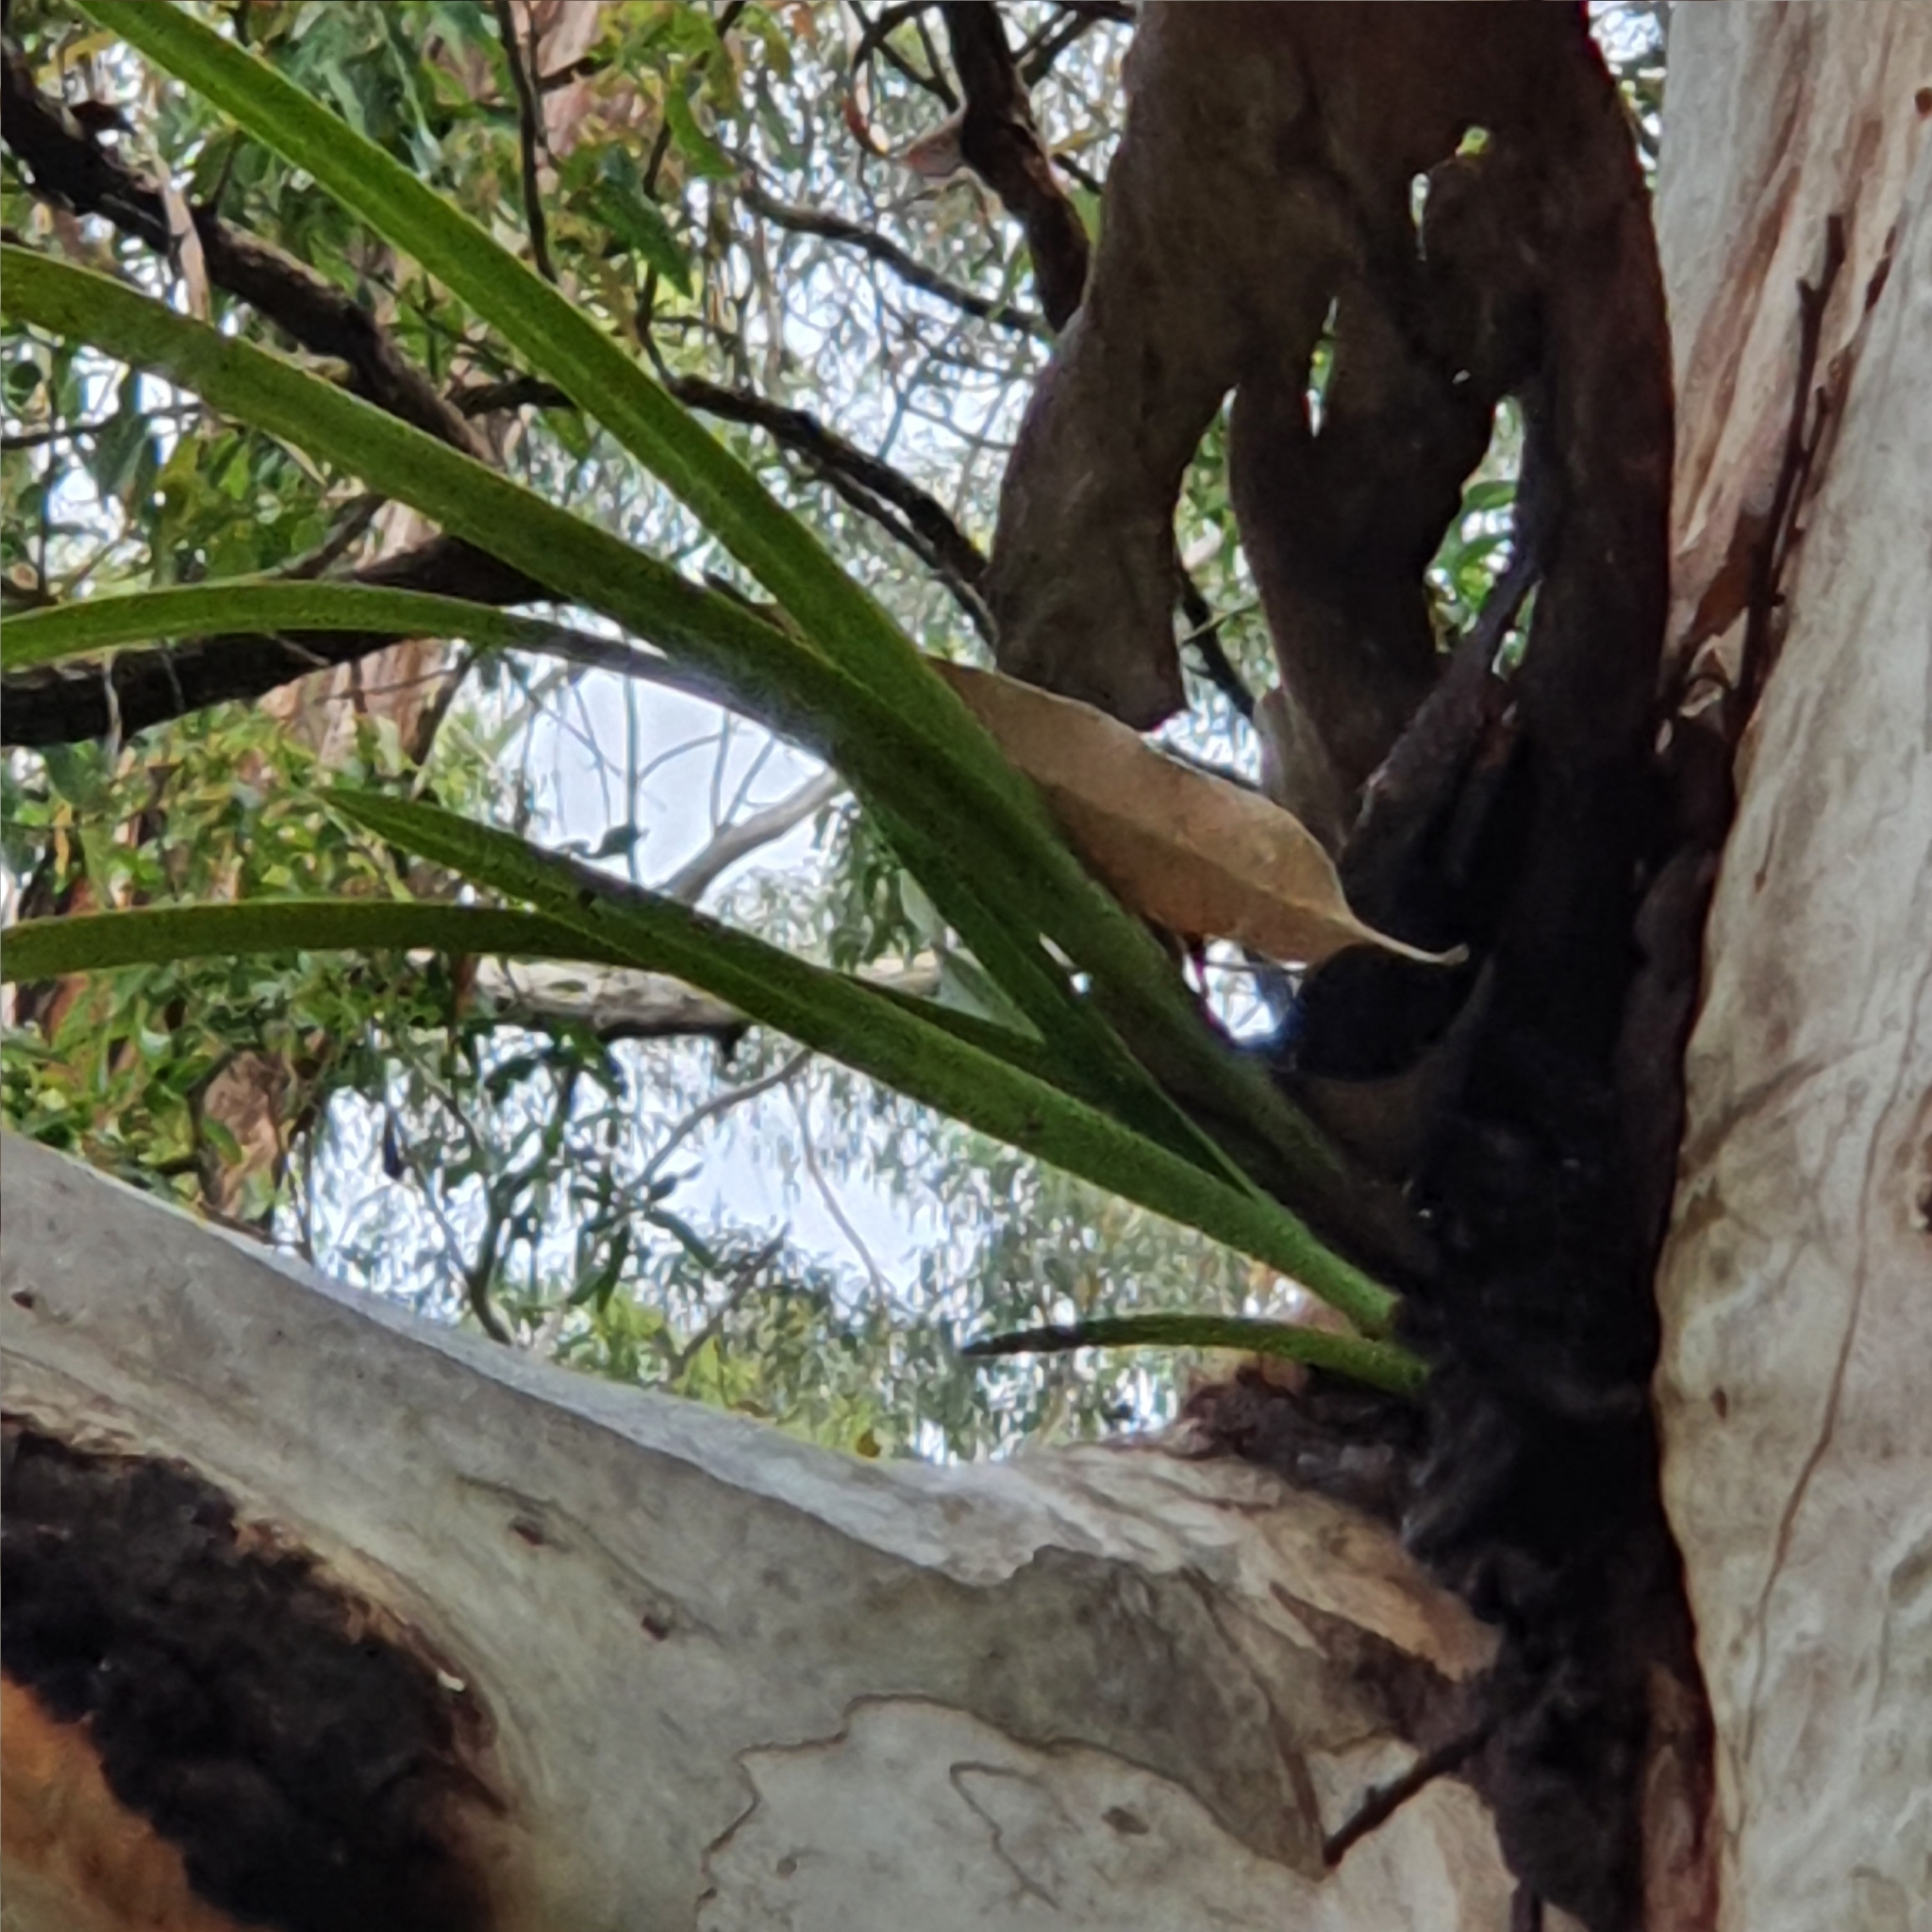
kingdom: Plantae
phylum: Tracheophyta
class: Liliopsida
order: Asparagales
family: Orchidaceae
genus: Cymbidium
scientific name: Cymbidium suave
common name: Snake orchid
